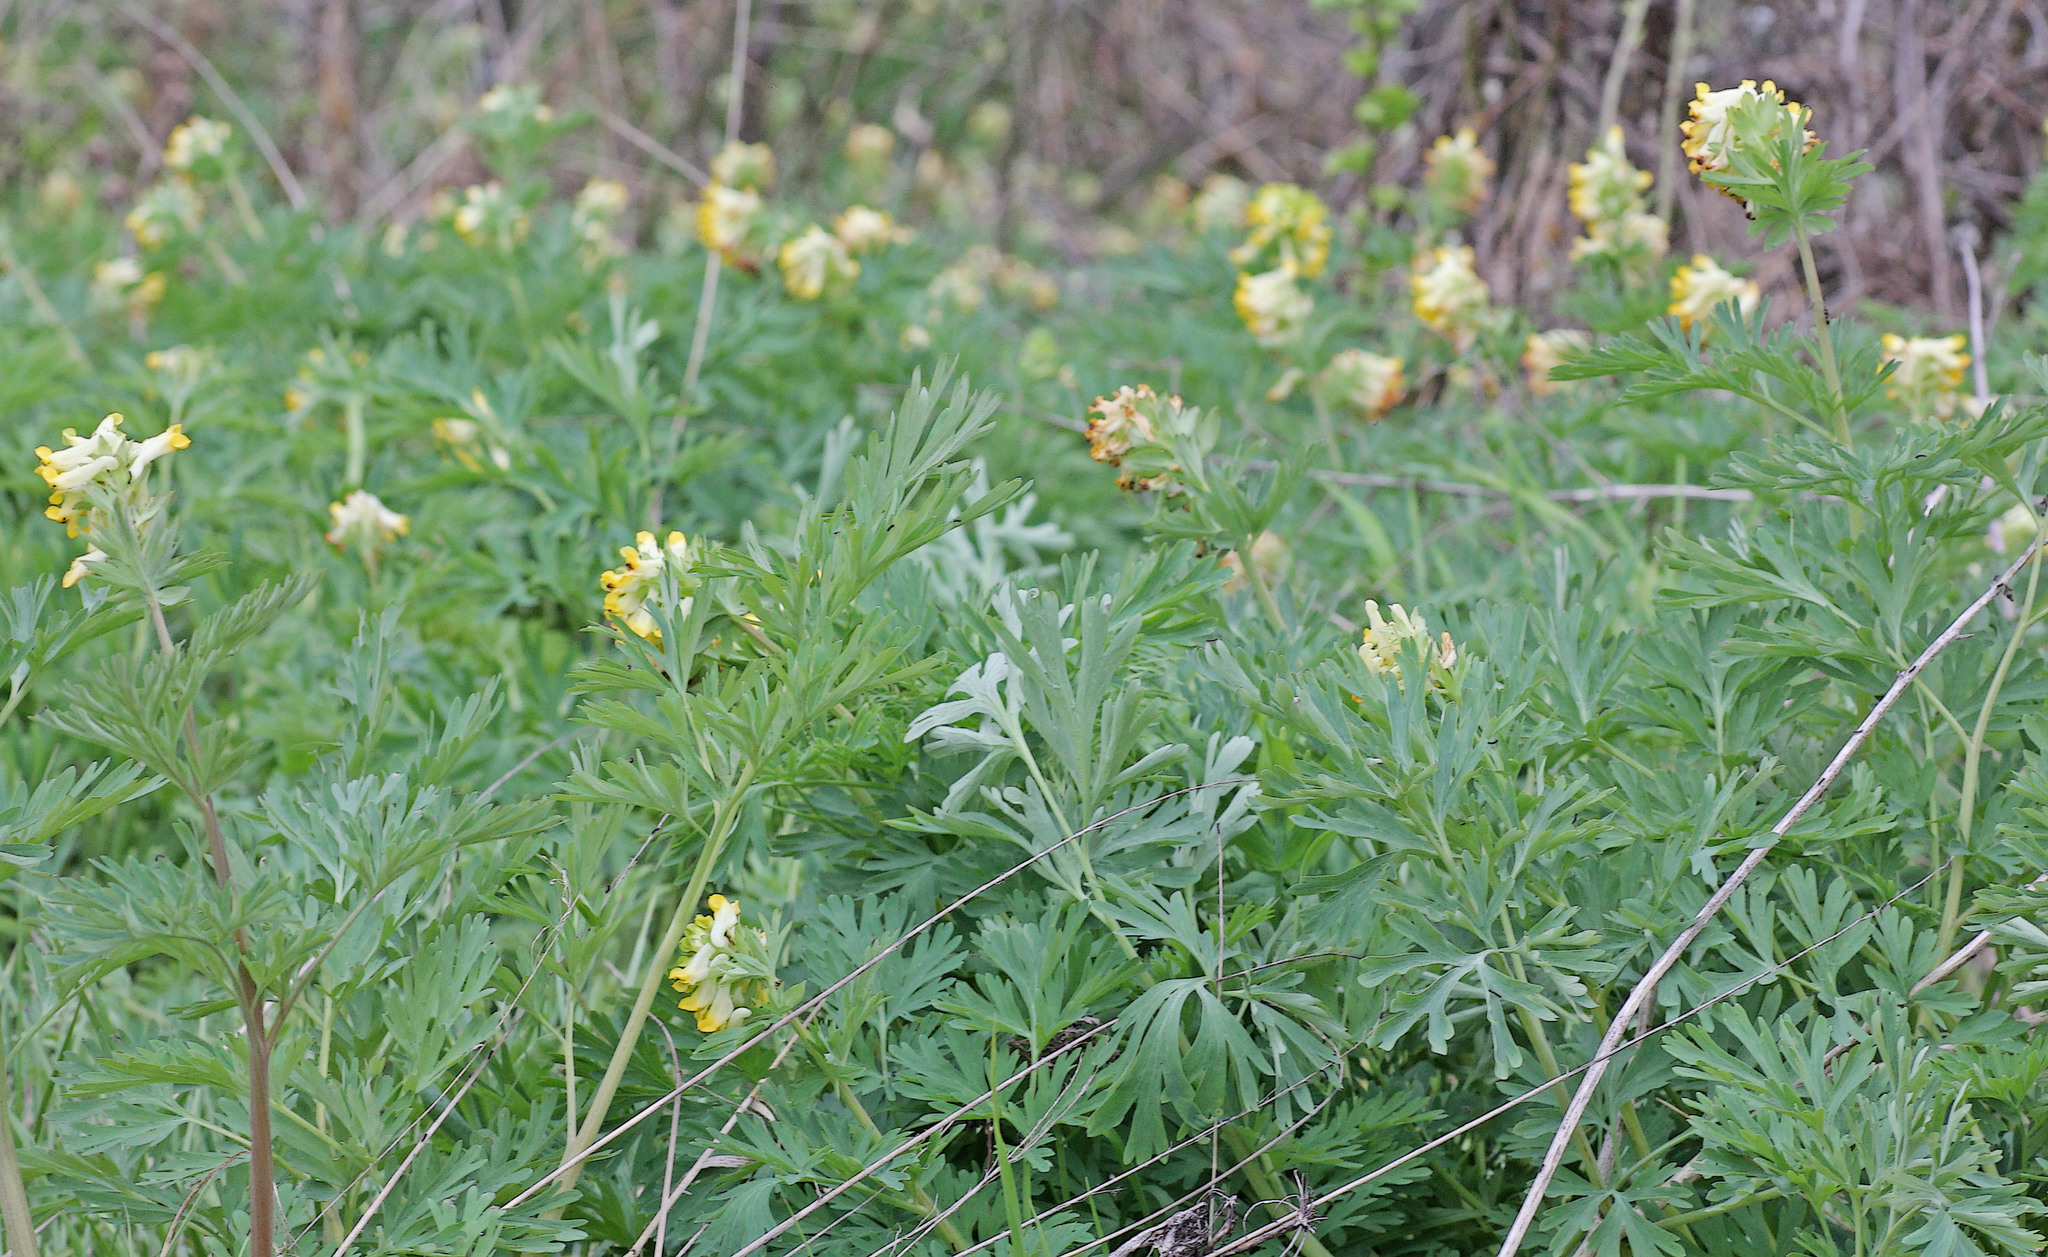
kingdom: Plantae
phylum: Tracheophyta
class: Magnoliopsida
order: Ranunculales
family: Papaveraceae
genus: Corydalis
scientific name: Corydalis nobilis
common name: Siberian corydalis
